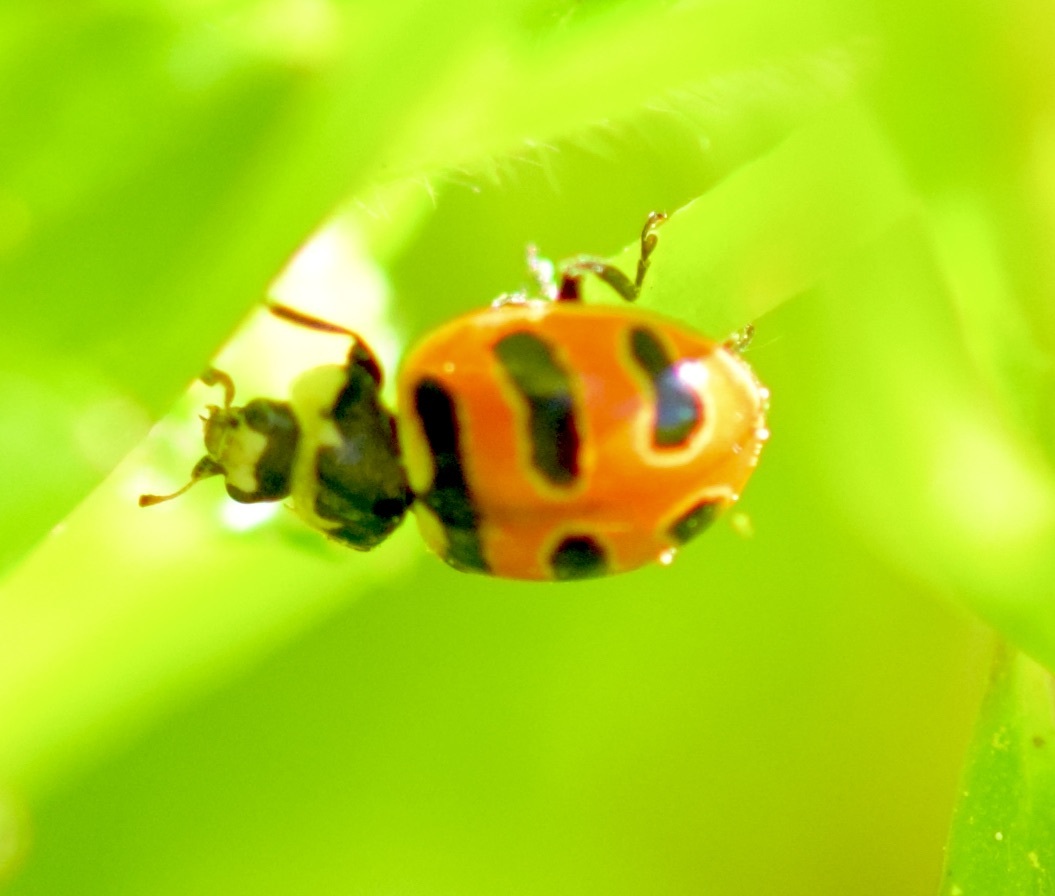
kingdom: Animalia
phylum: Arthropoda
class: Insecta
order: Coleoptera
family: Coccinellidae
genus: Coccinella
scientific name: Coccinella trifasciata
